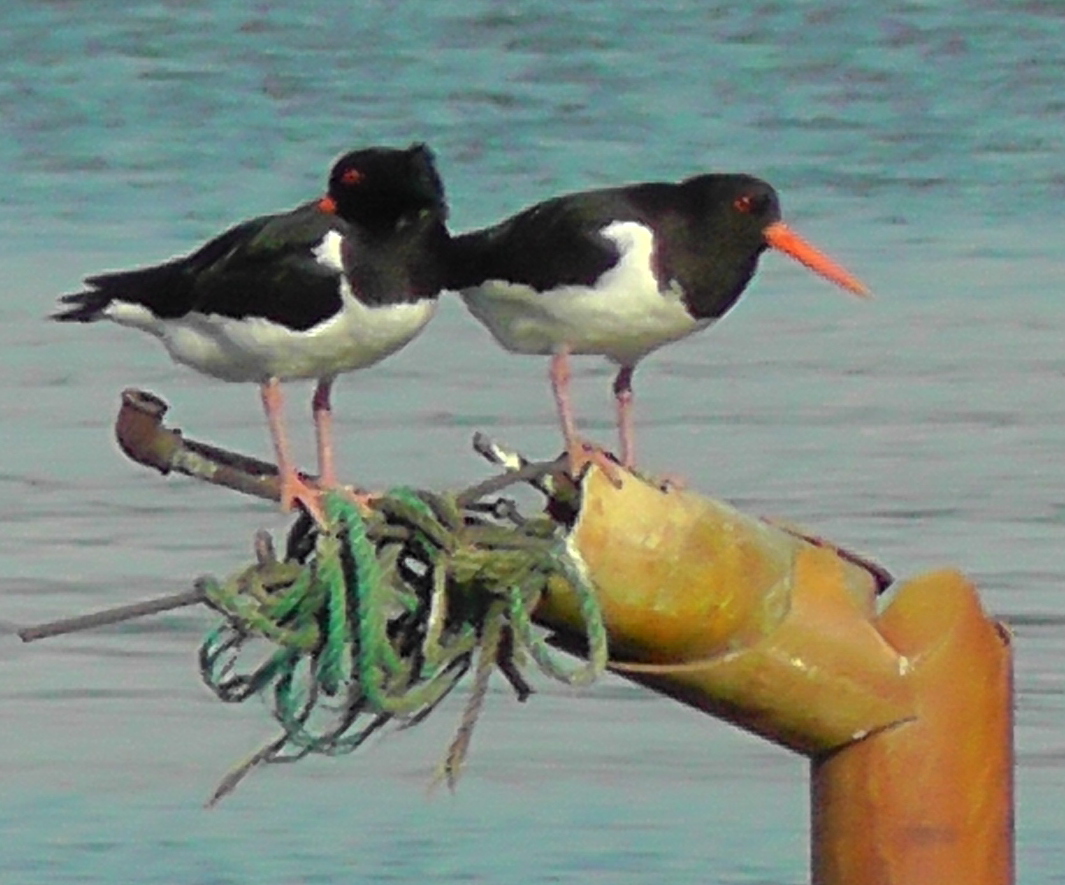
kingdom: Animalia
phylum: Chordata
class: Aves
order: Charadriiformes
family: Haematopodidae
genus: Haematopus
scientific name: Haematopus ostralegus
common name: Eurasian oystercatcher
